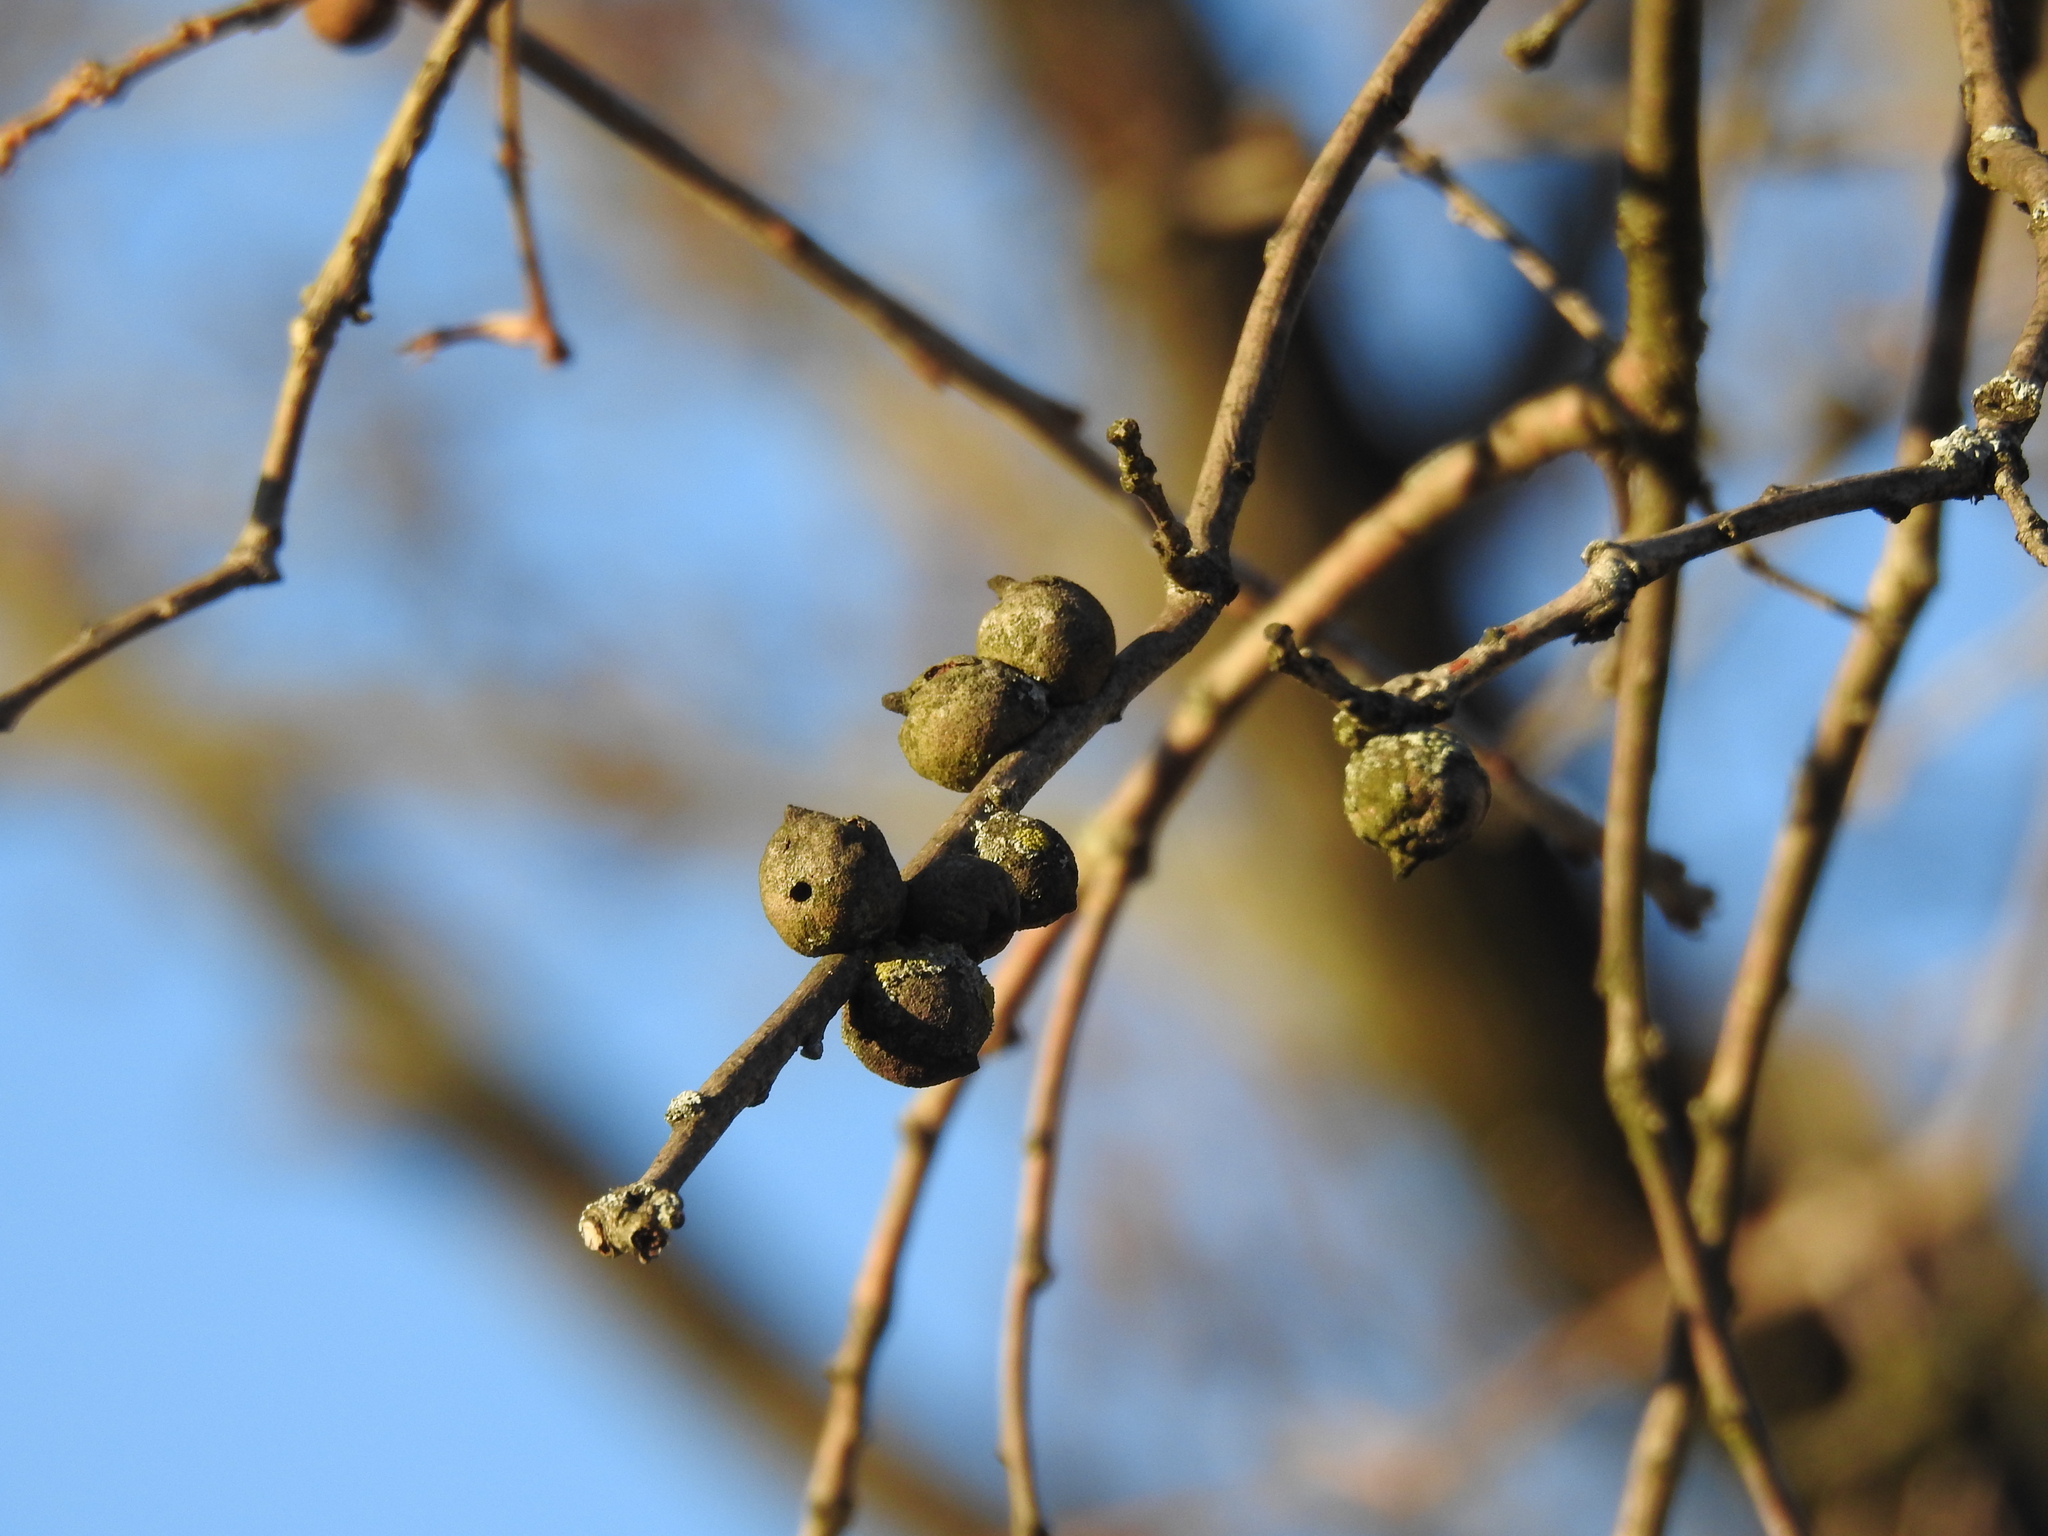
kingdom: Animalia
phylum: Arthropoda
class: Insecta
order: Hymenoptera
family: Cynipidae
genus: Disholcaspis
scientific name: Disholcaspis
